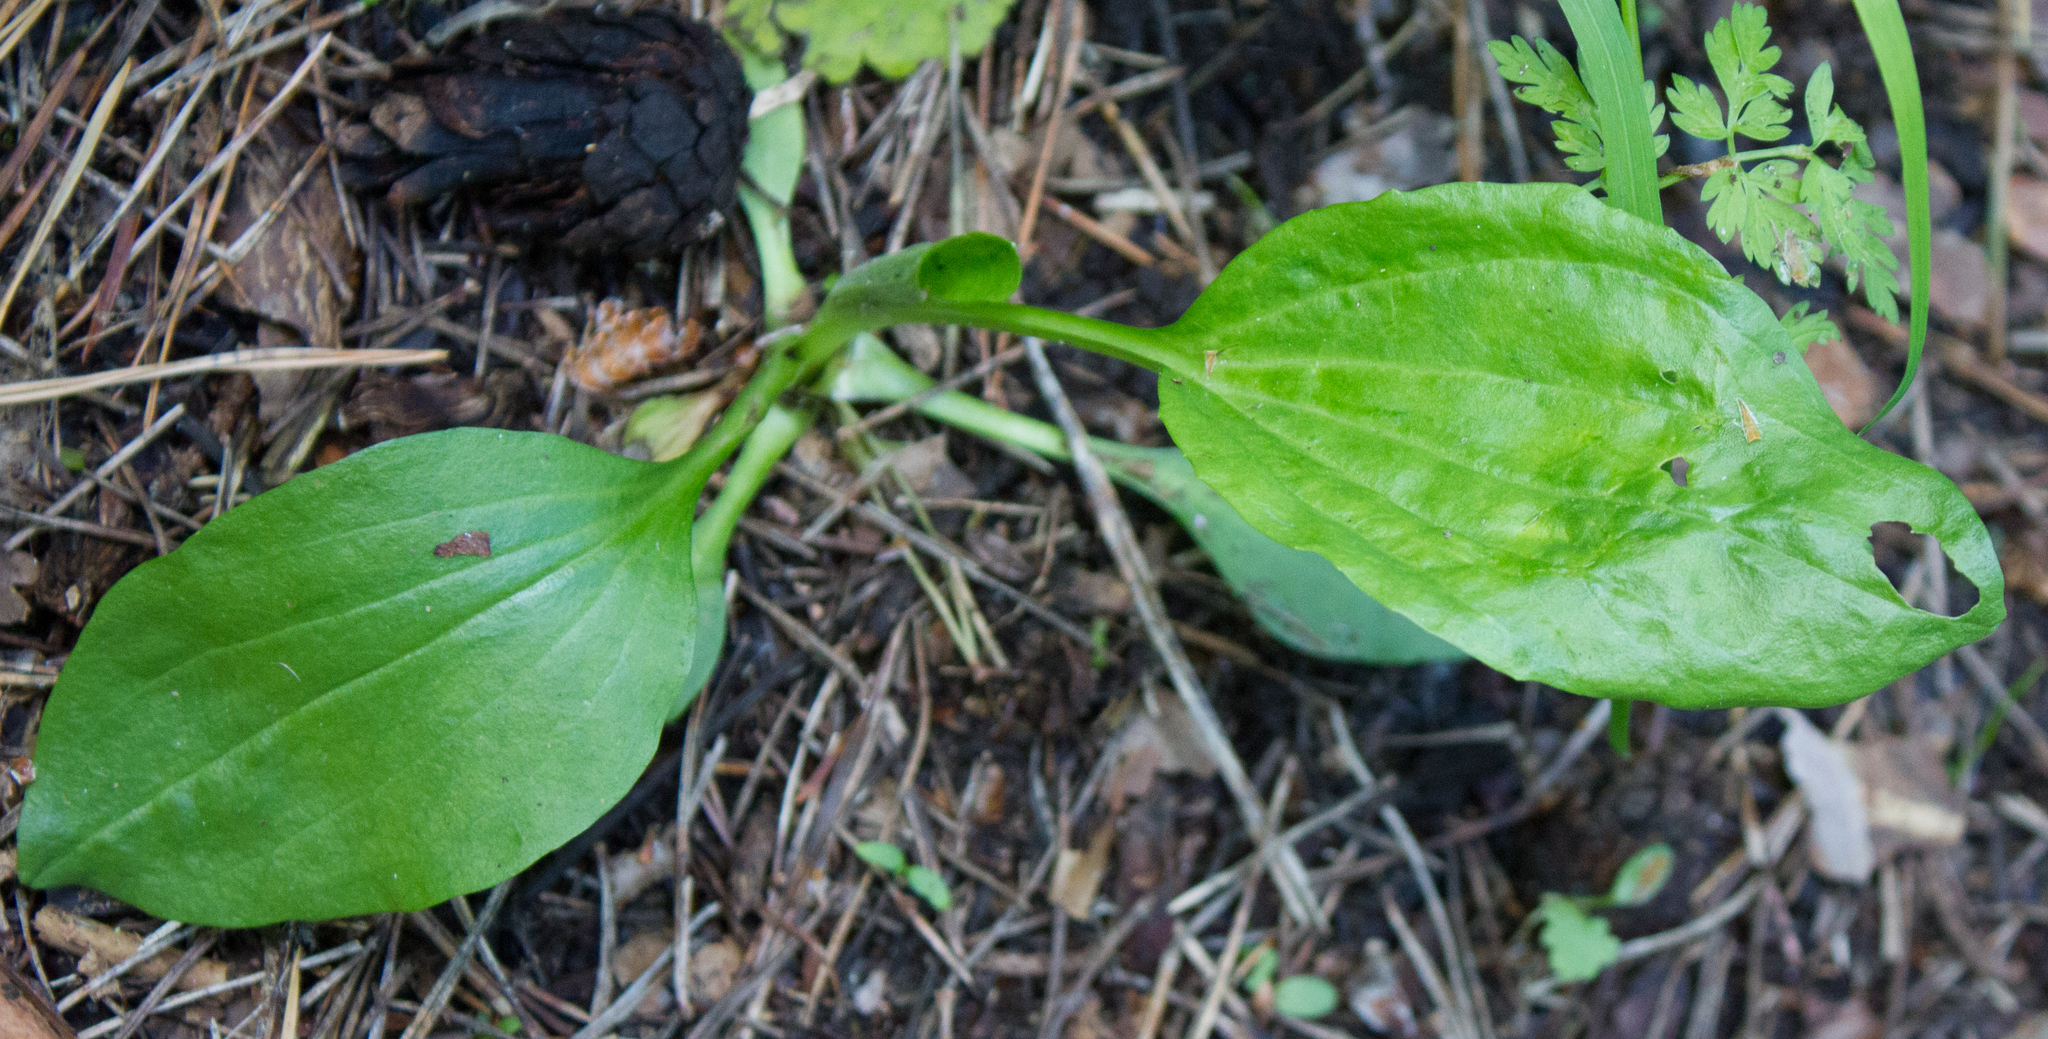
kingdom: Plantae
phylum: Tracheophyta
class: Magnoliopsida
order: Lamiales
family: Plantaginaceae
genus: Plantago
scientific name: Plantago major
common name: Common plantain
